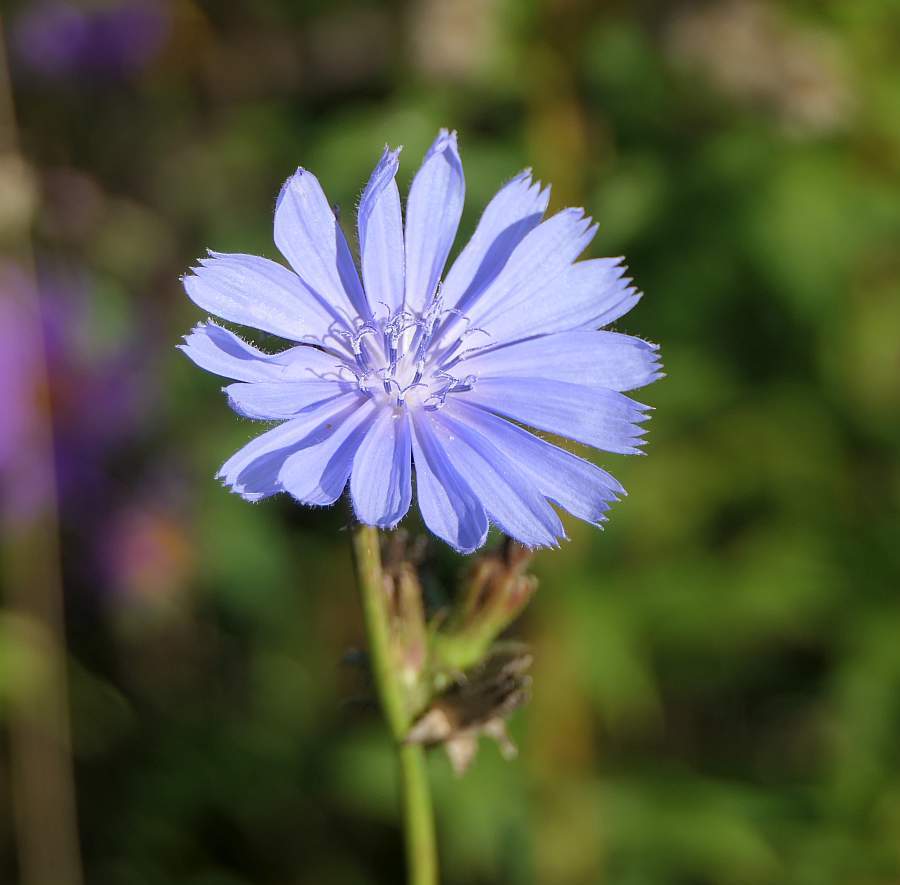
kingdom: Plantae
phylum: Tracheophyta
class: Magnoliopsida
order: Asterales
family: Asteraceae
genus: Cichorium
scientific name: Cichorium intybus
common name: Chicory
